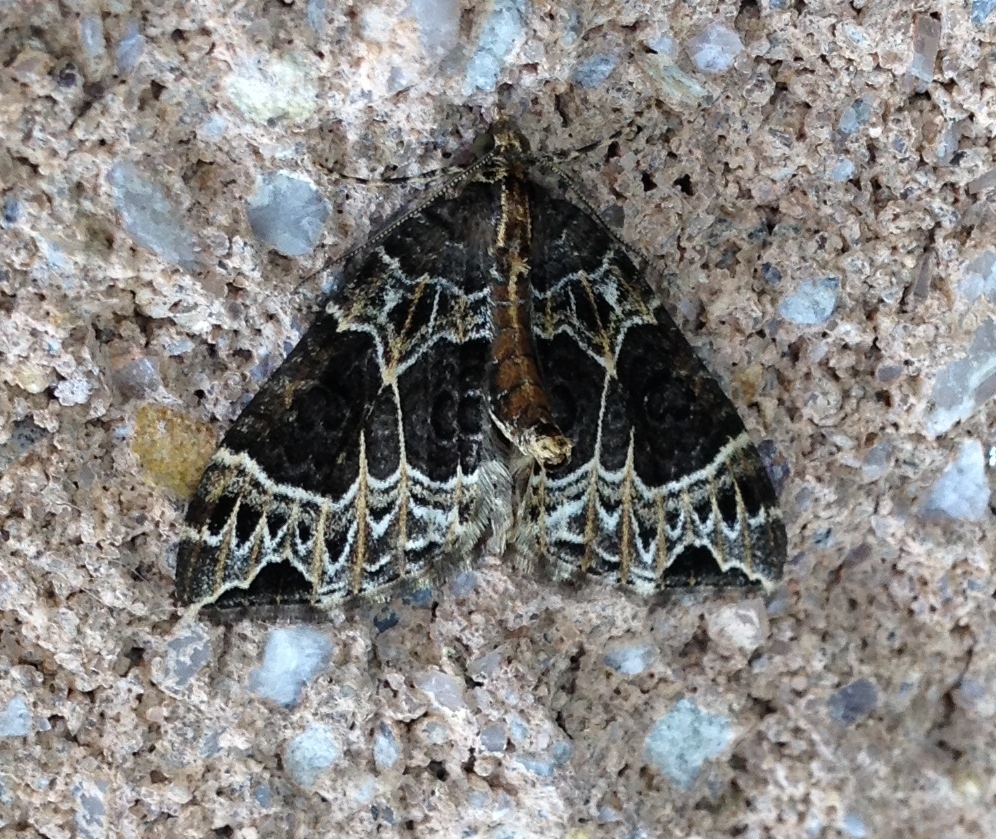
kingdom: Animalia
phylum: Arthropoda
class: Insecta
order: Lepidoptera
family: Geometridae
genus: Ecliptopera
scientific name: Ecliptopera silaceata
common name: Small phoenix
